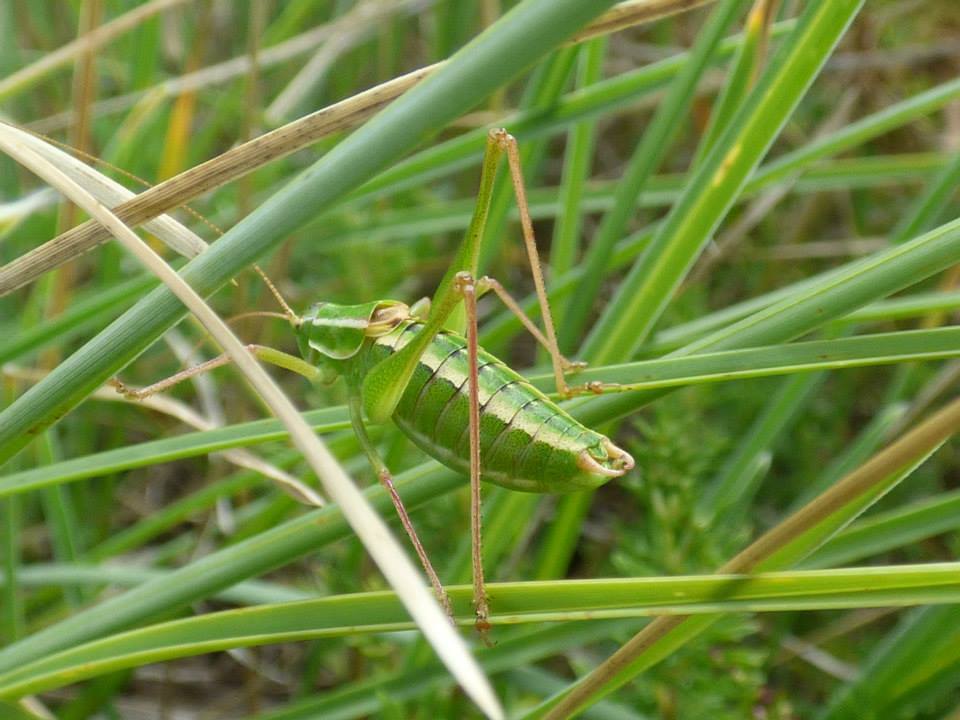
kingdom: Animalia
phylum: Arthropoda
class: Insecta
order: Orthoptera
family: Tettigoniidae
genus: Poecilimon
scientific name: Poecilimon elegans
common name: Elegant bright bush-cricket
